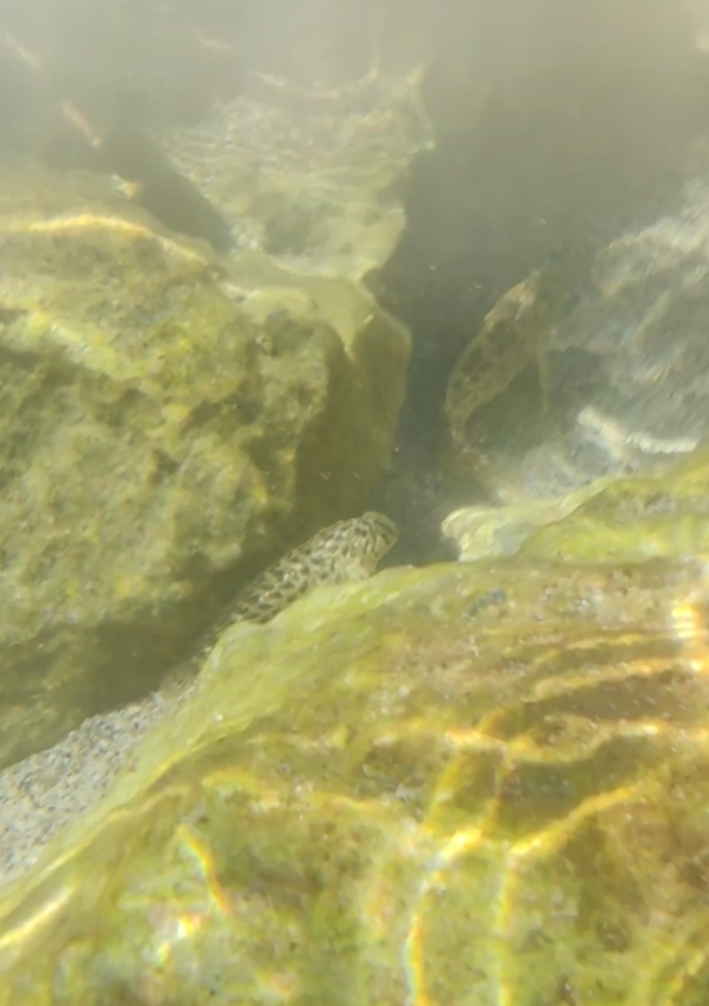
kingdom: Animalia
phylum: Chordata
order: Perciformes
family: Blenniidae
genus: Parablennius
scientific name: Parablennius sanguinolentus
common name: Black sea blenny
